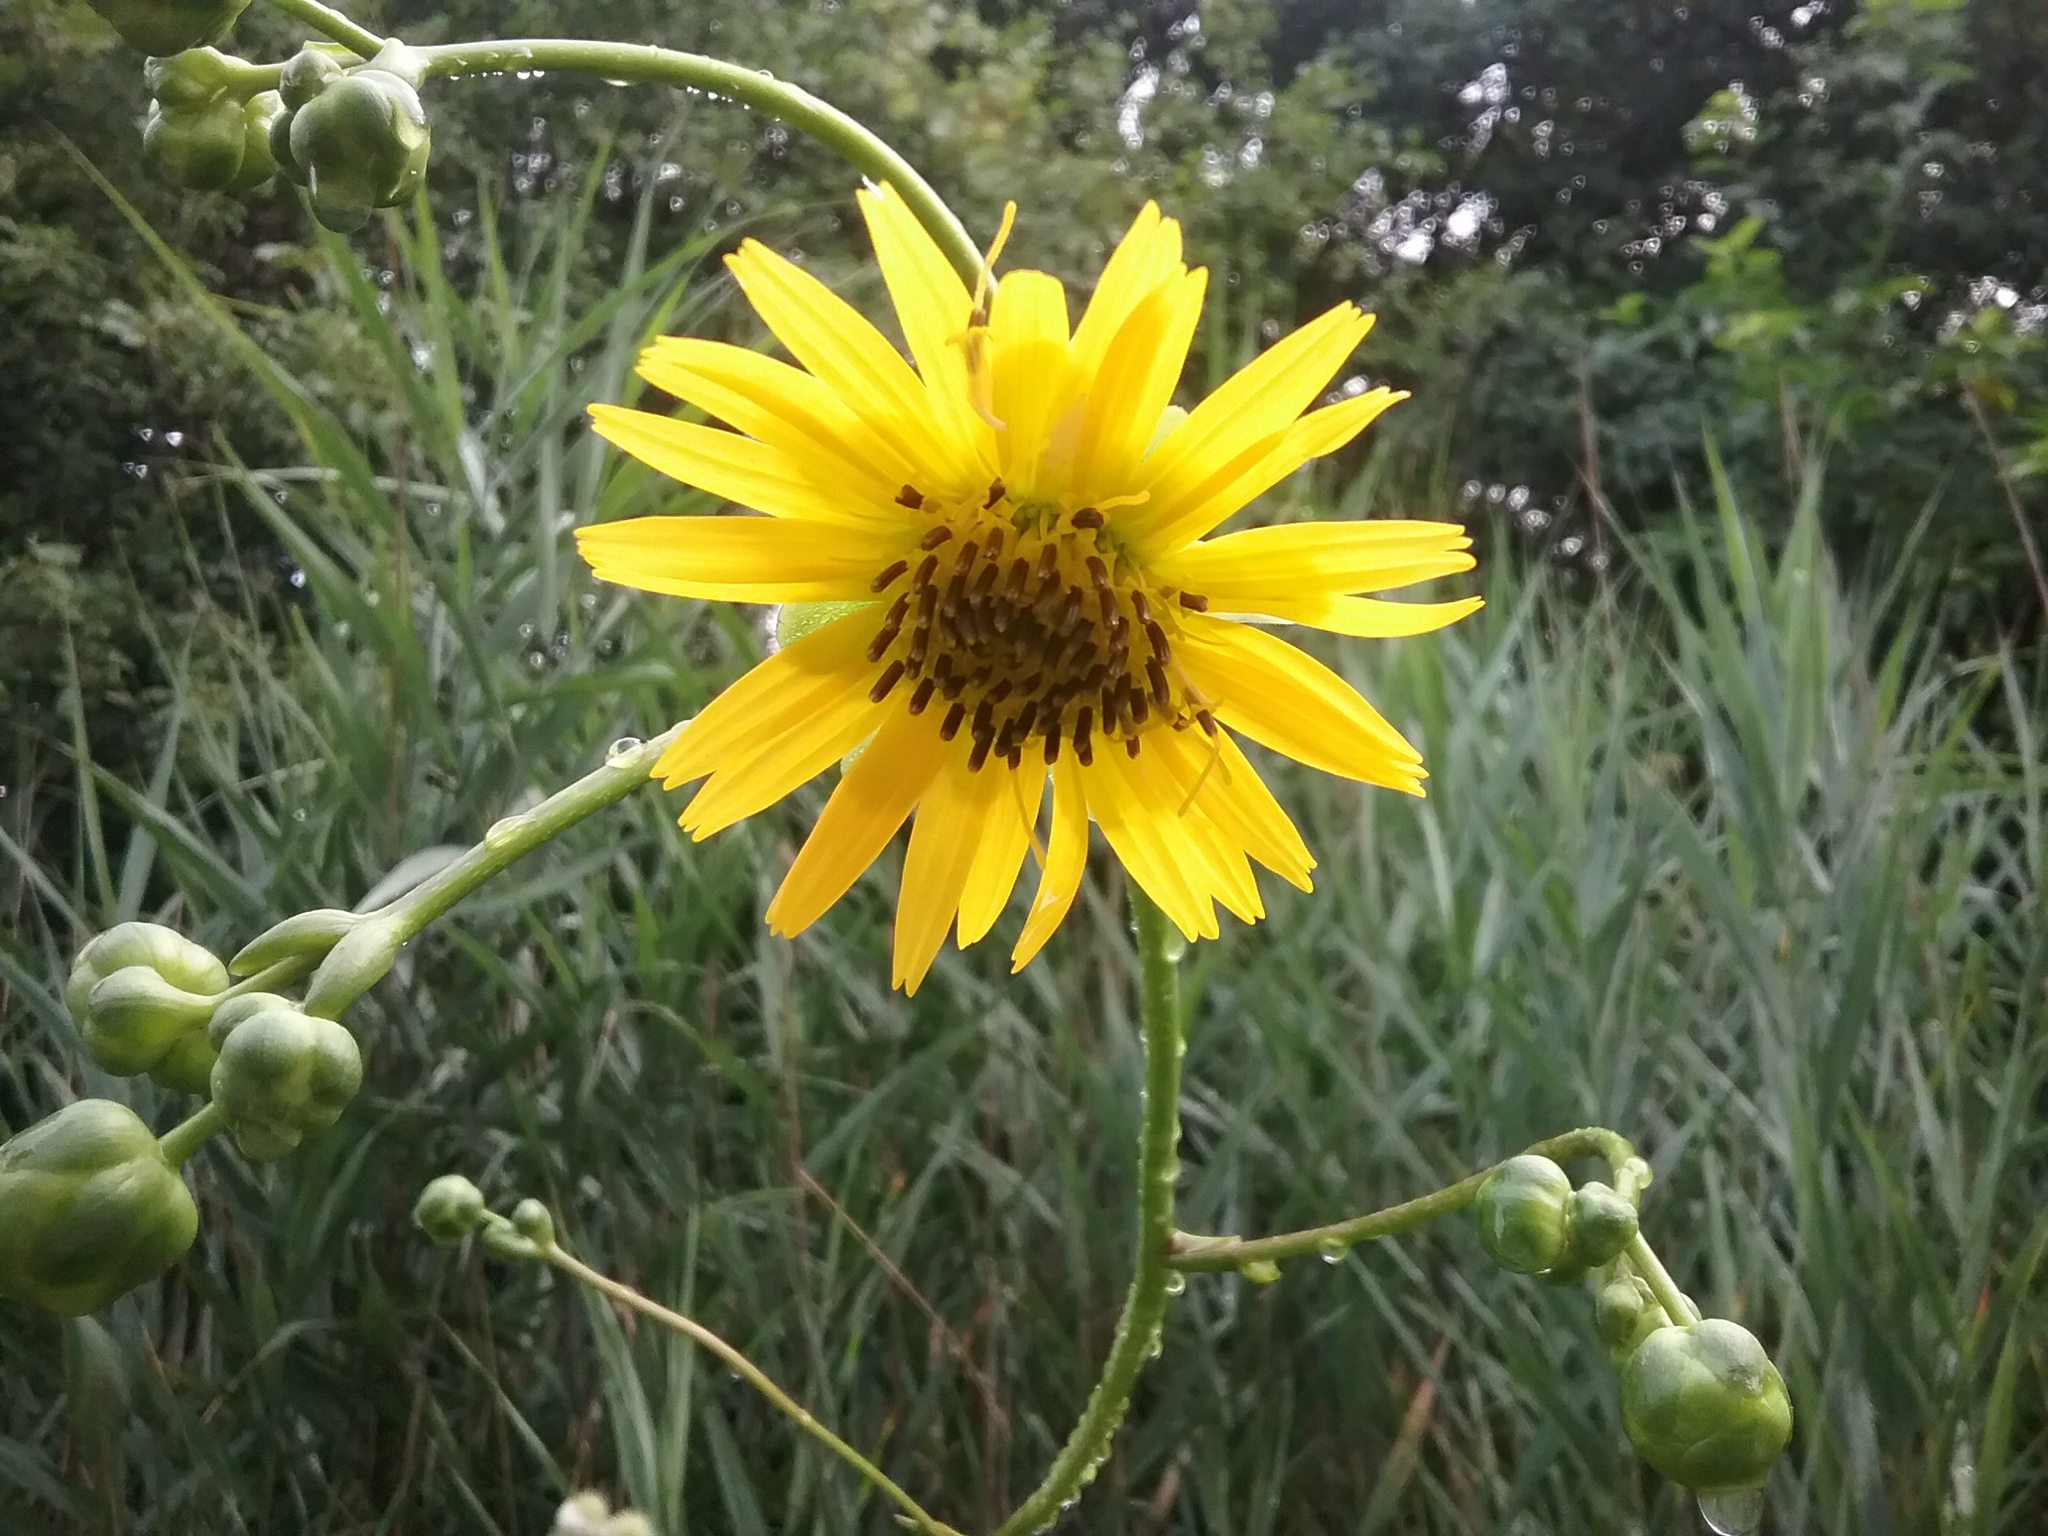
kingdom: Plantae
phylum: Tracheophyta
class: Magnoliopsida
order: Asterales
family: Asteraceae
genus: Silphium
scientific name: Silphium terebinthinaceum
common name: Basal-leaf rosinweed
